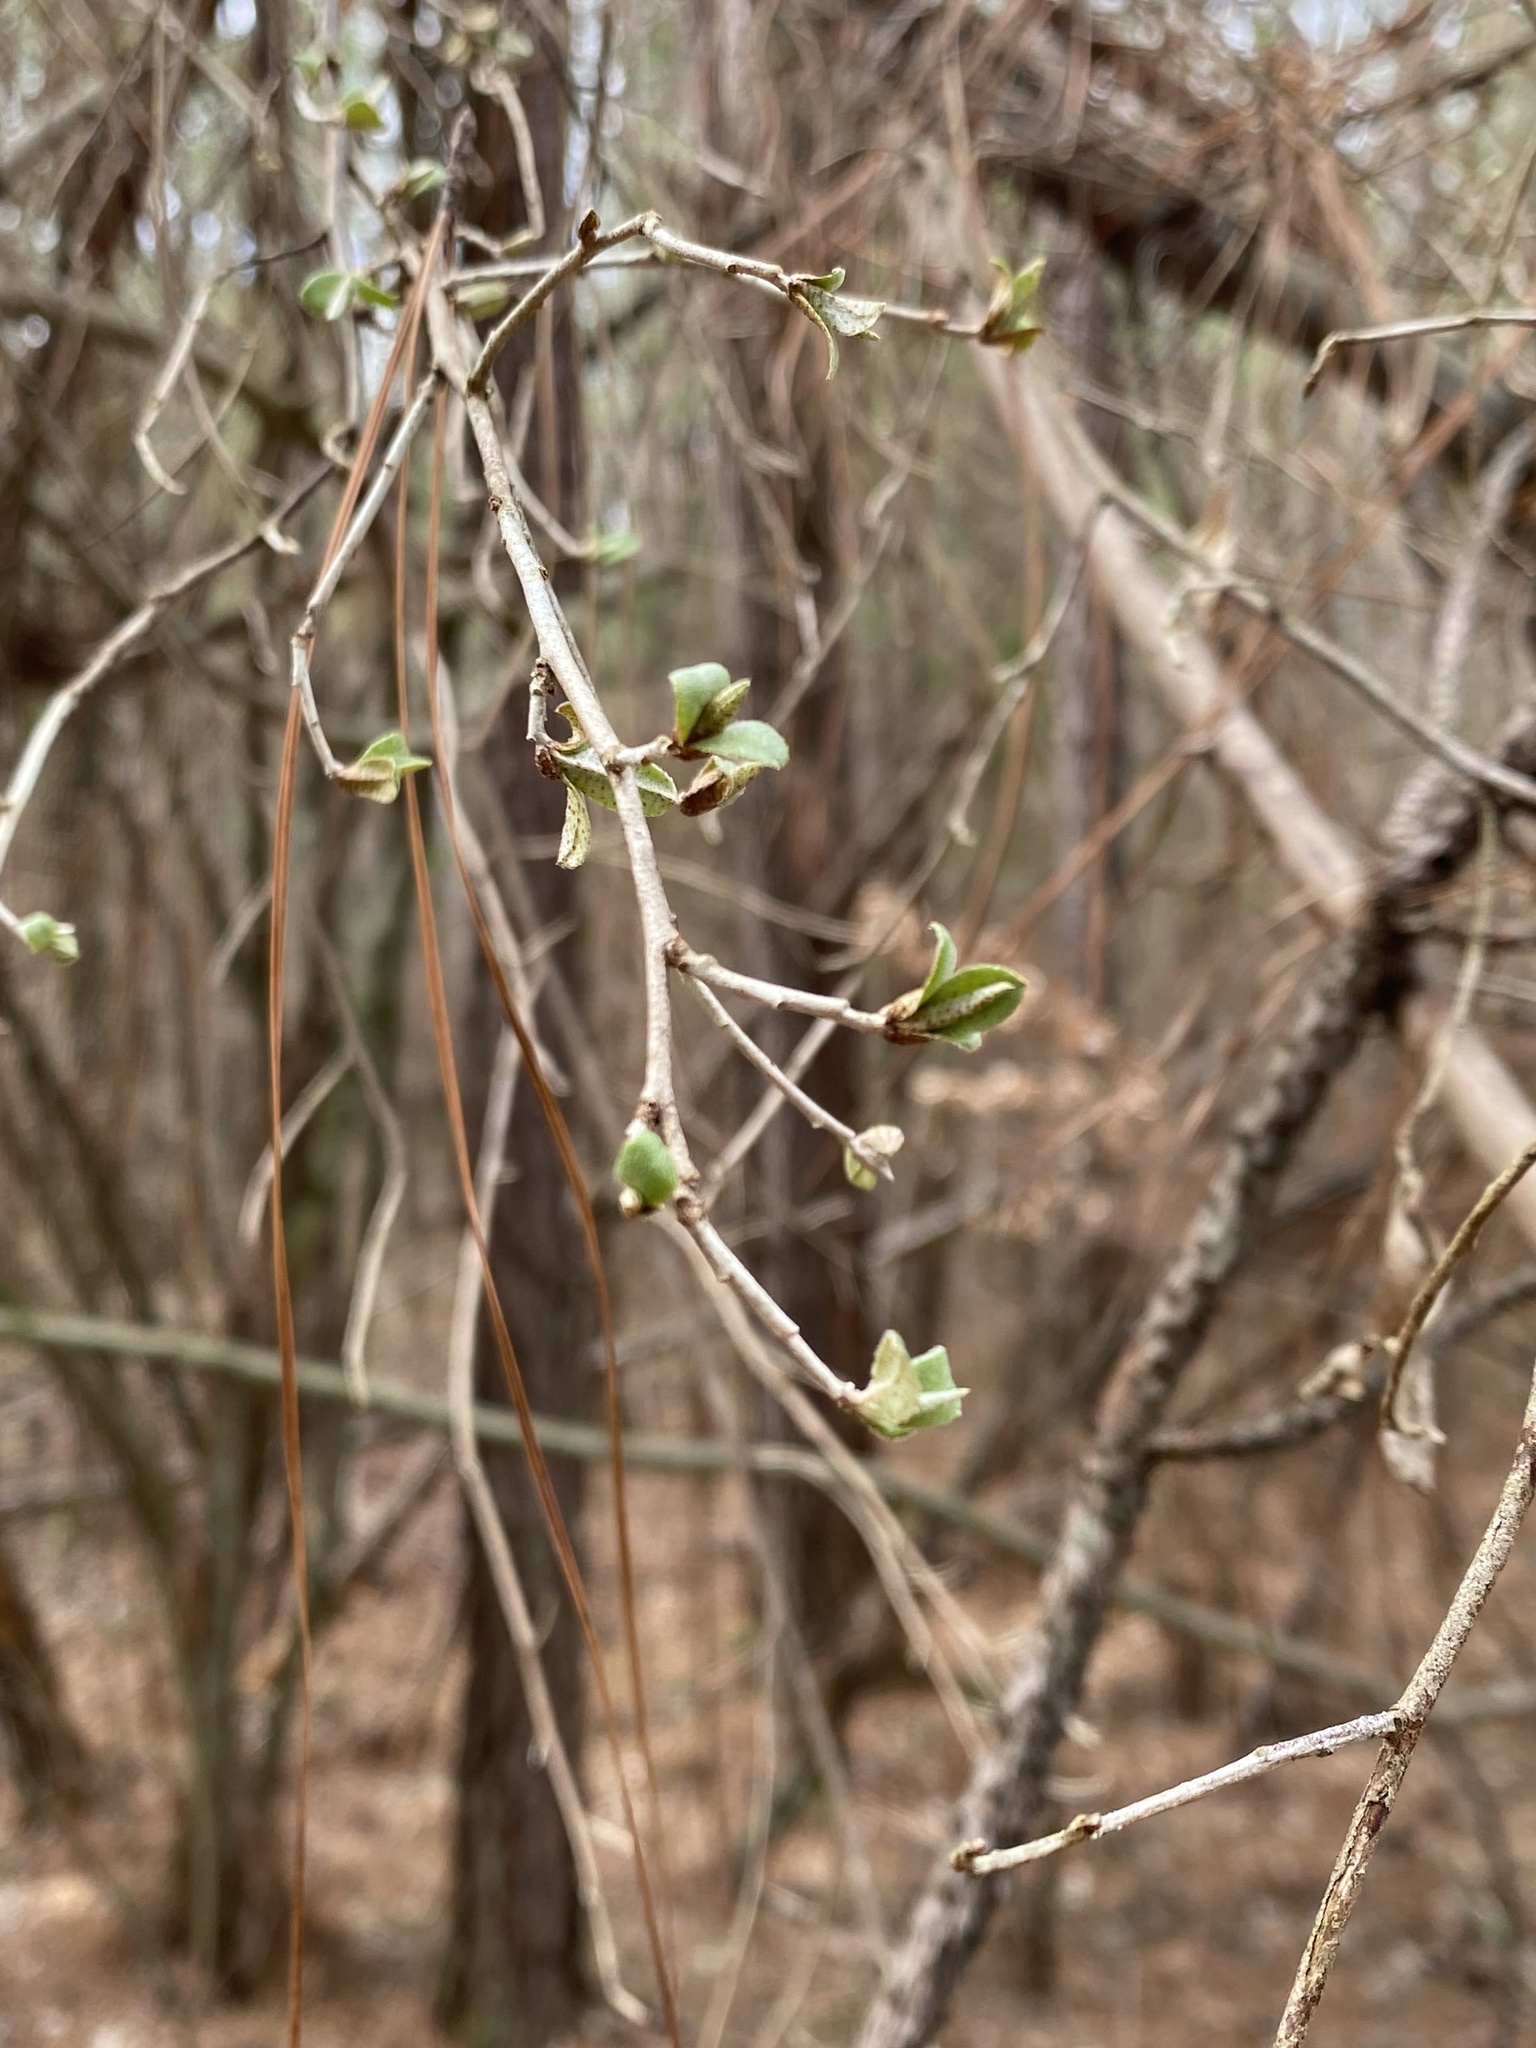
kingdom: Plantae
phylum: Tracheophyta
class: Magnoliopsida
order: Rosales
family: Elaeagnaceae
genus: Elaeagnus
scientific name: Elaeagnus umbellata
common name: Autumn olive
